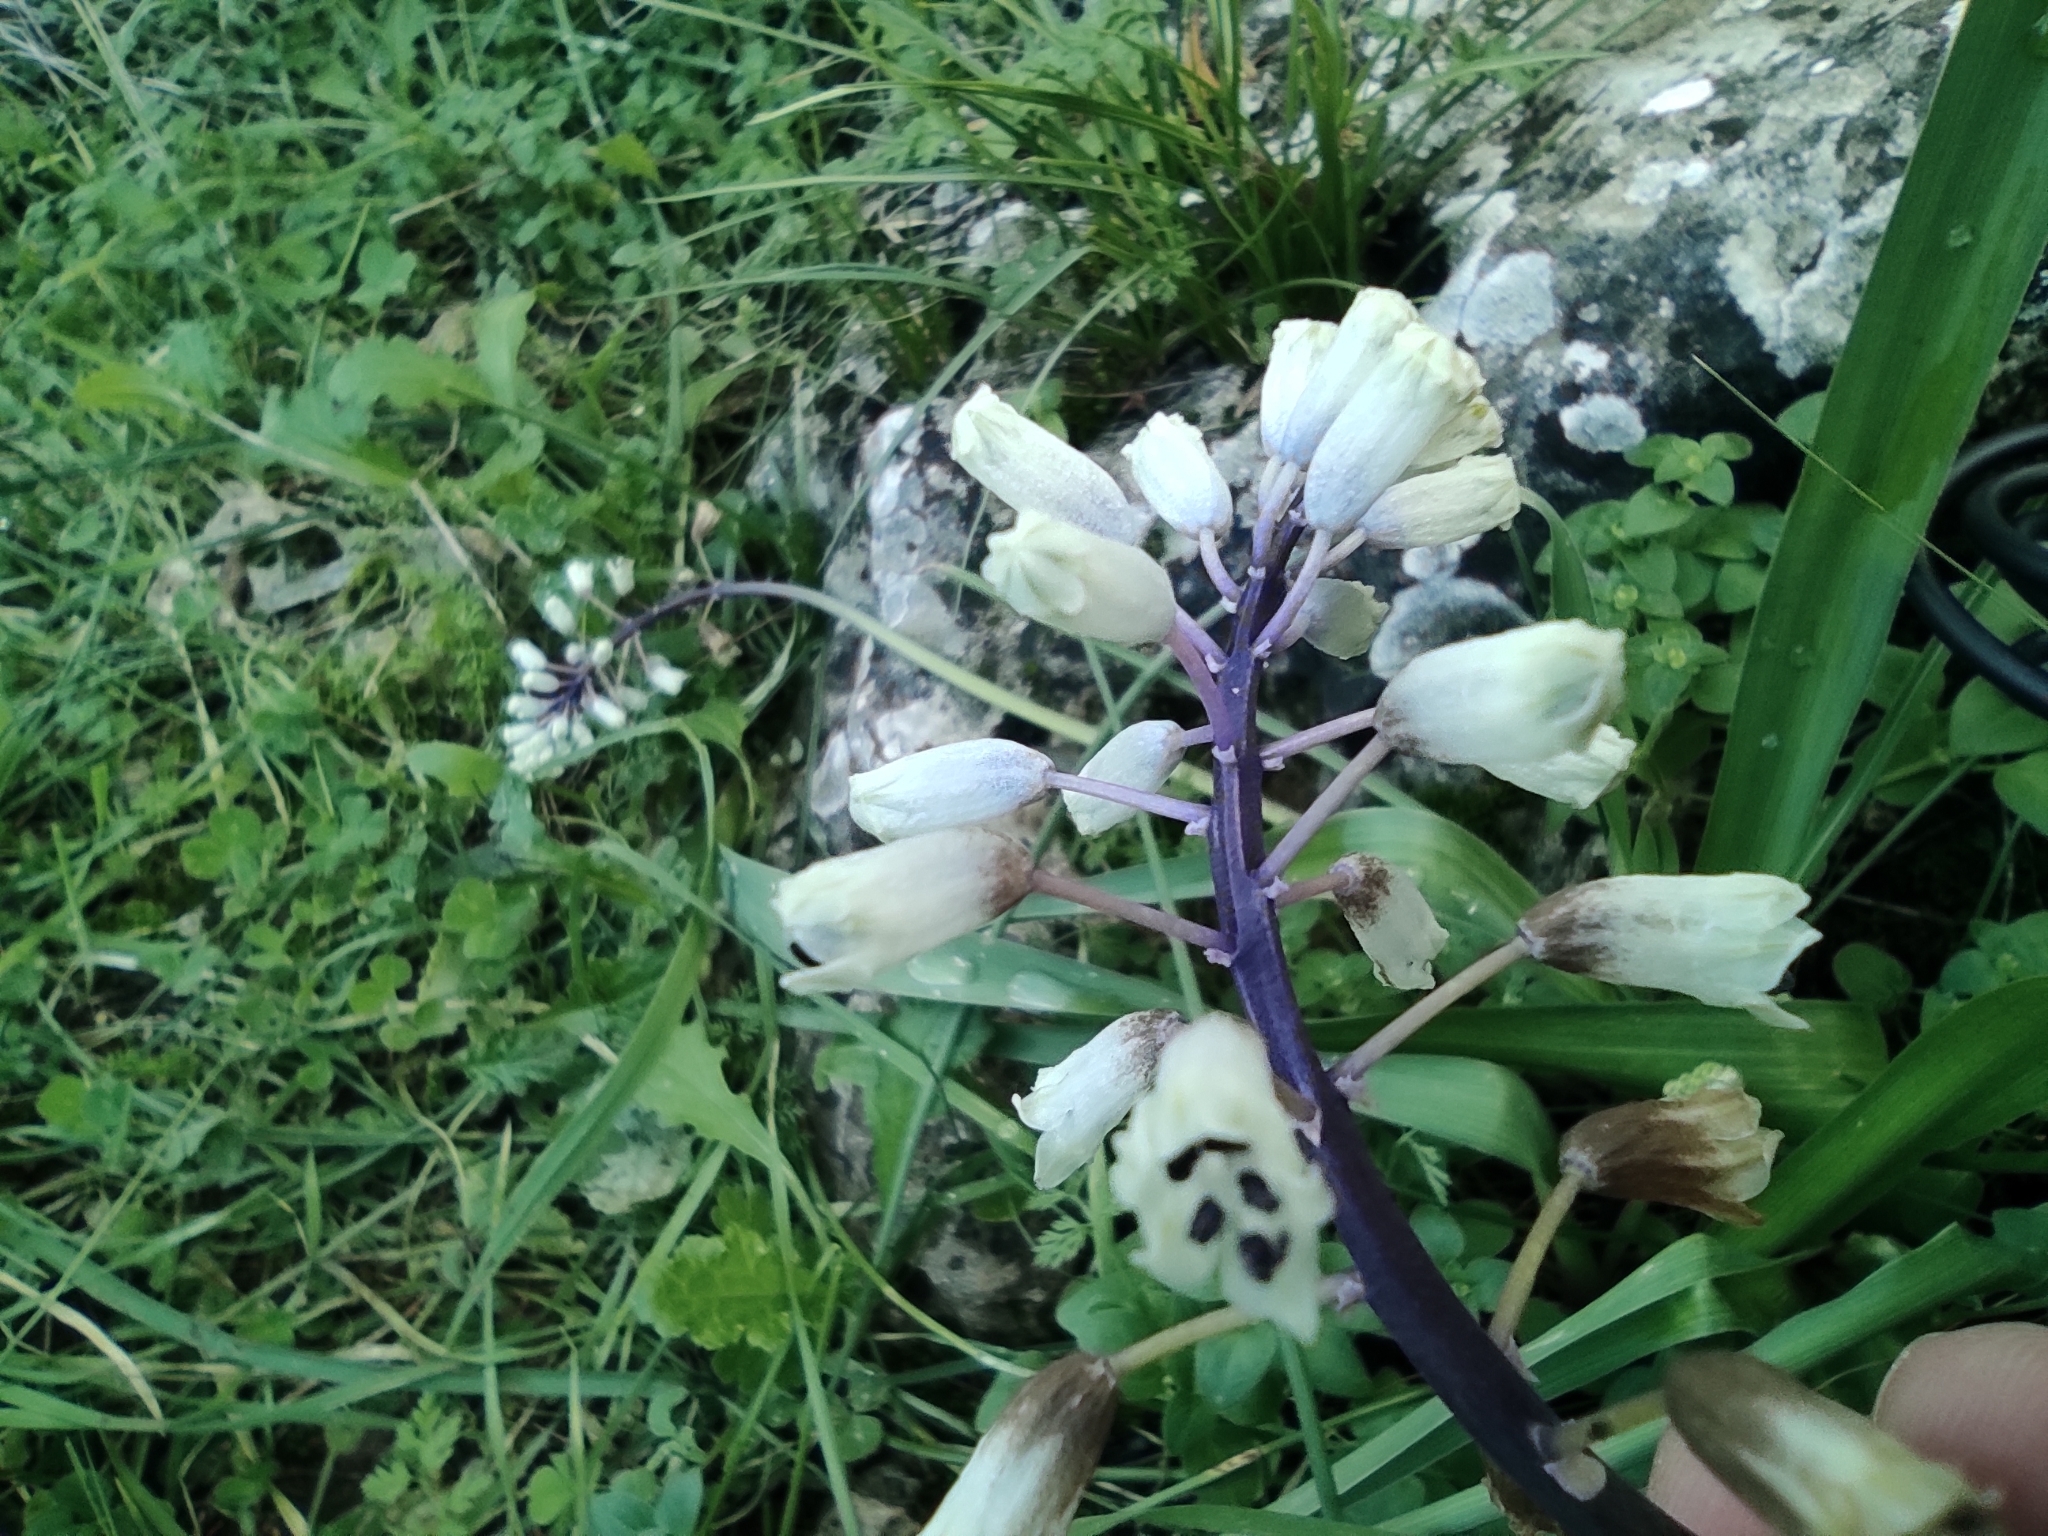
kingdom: Plantae
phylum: Tracheophyta
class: Liliopsida
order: Asparagales
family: Asparagaceae
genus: Bellevalia
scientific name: Bellevalia flexuosa
